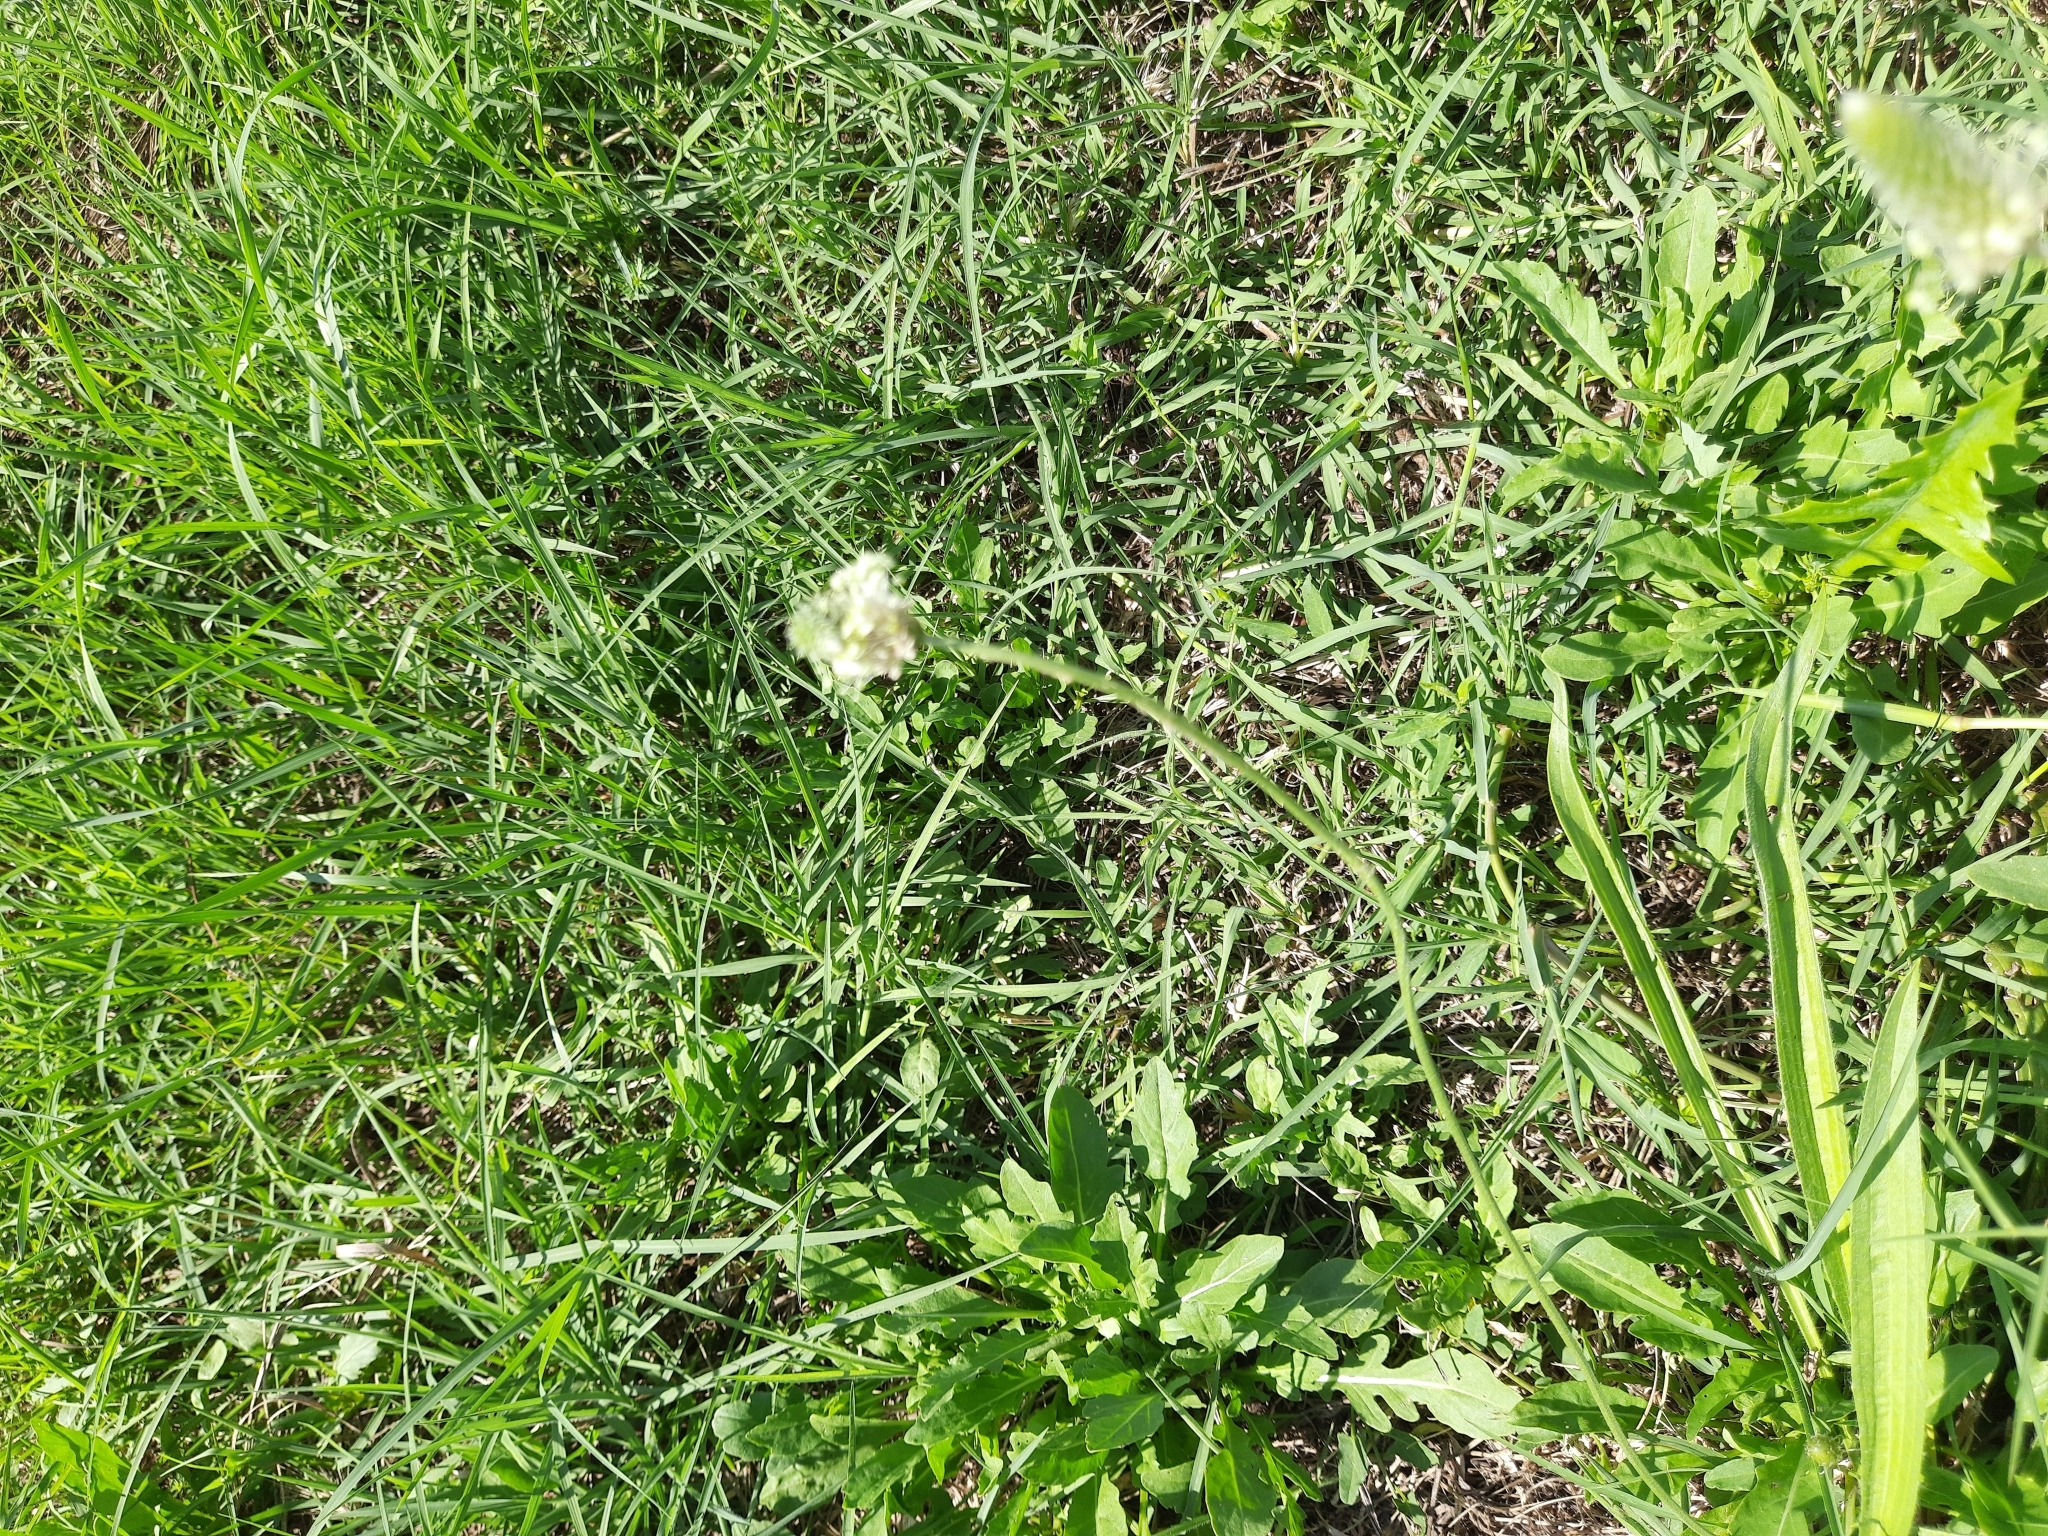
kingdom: Plantae
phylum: Tracheophyta
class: Magnoliopsida
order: Lamiales
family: Plantaginaceae
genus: Plantago
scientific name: Plantago lanceolata
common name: Ribwort plantain
